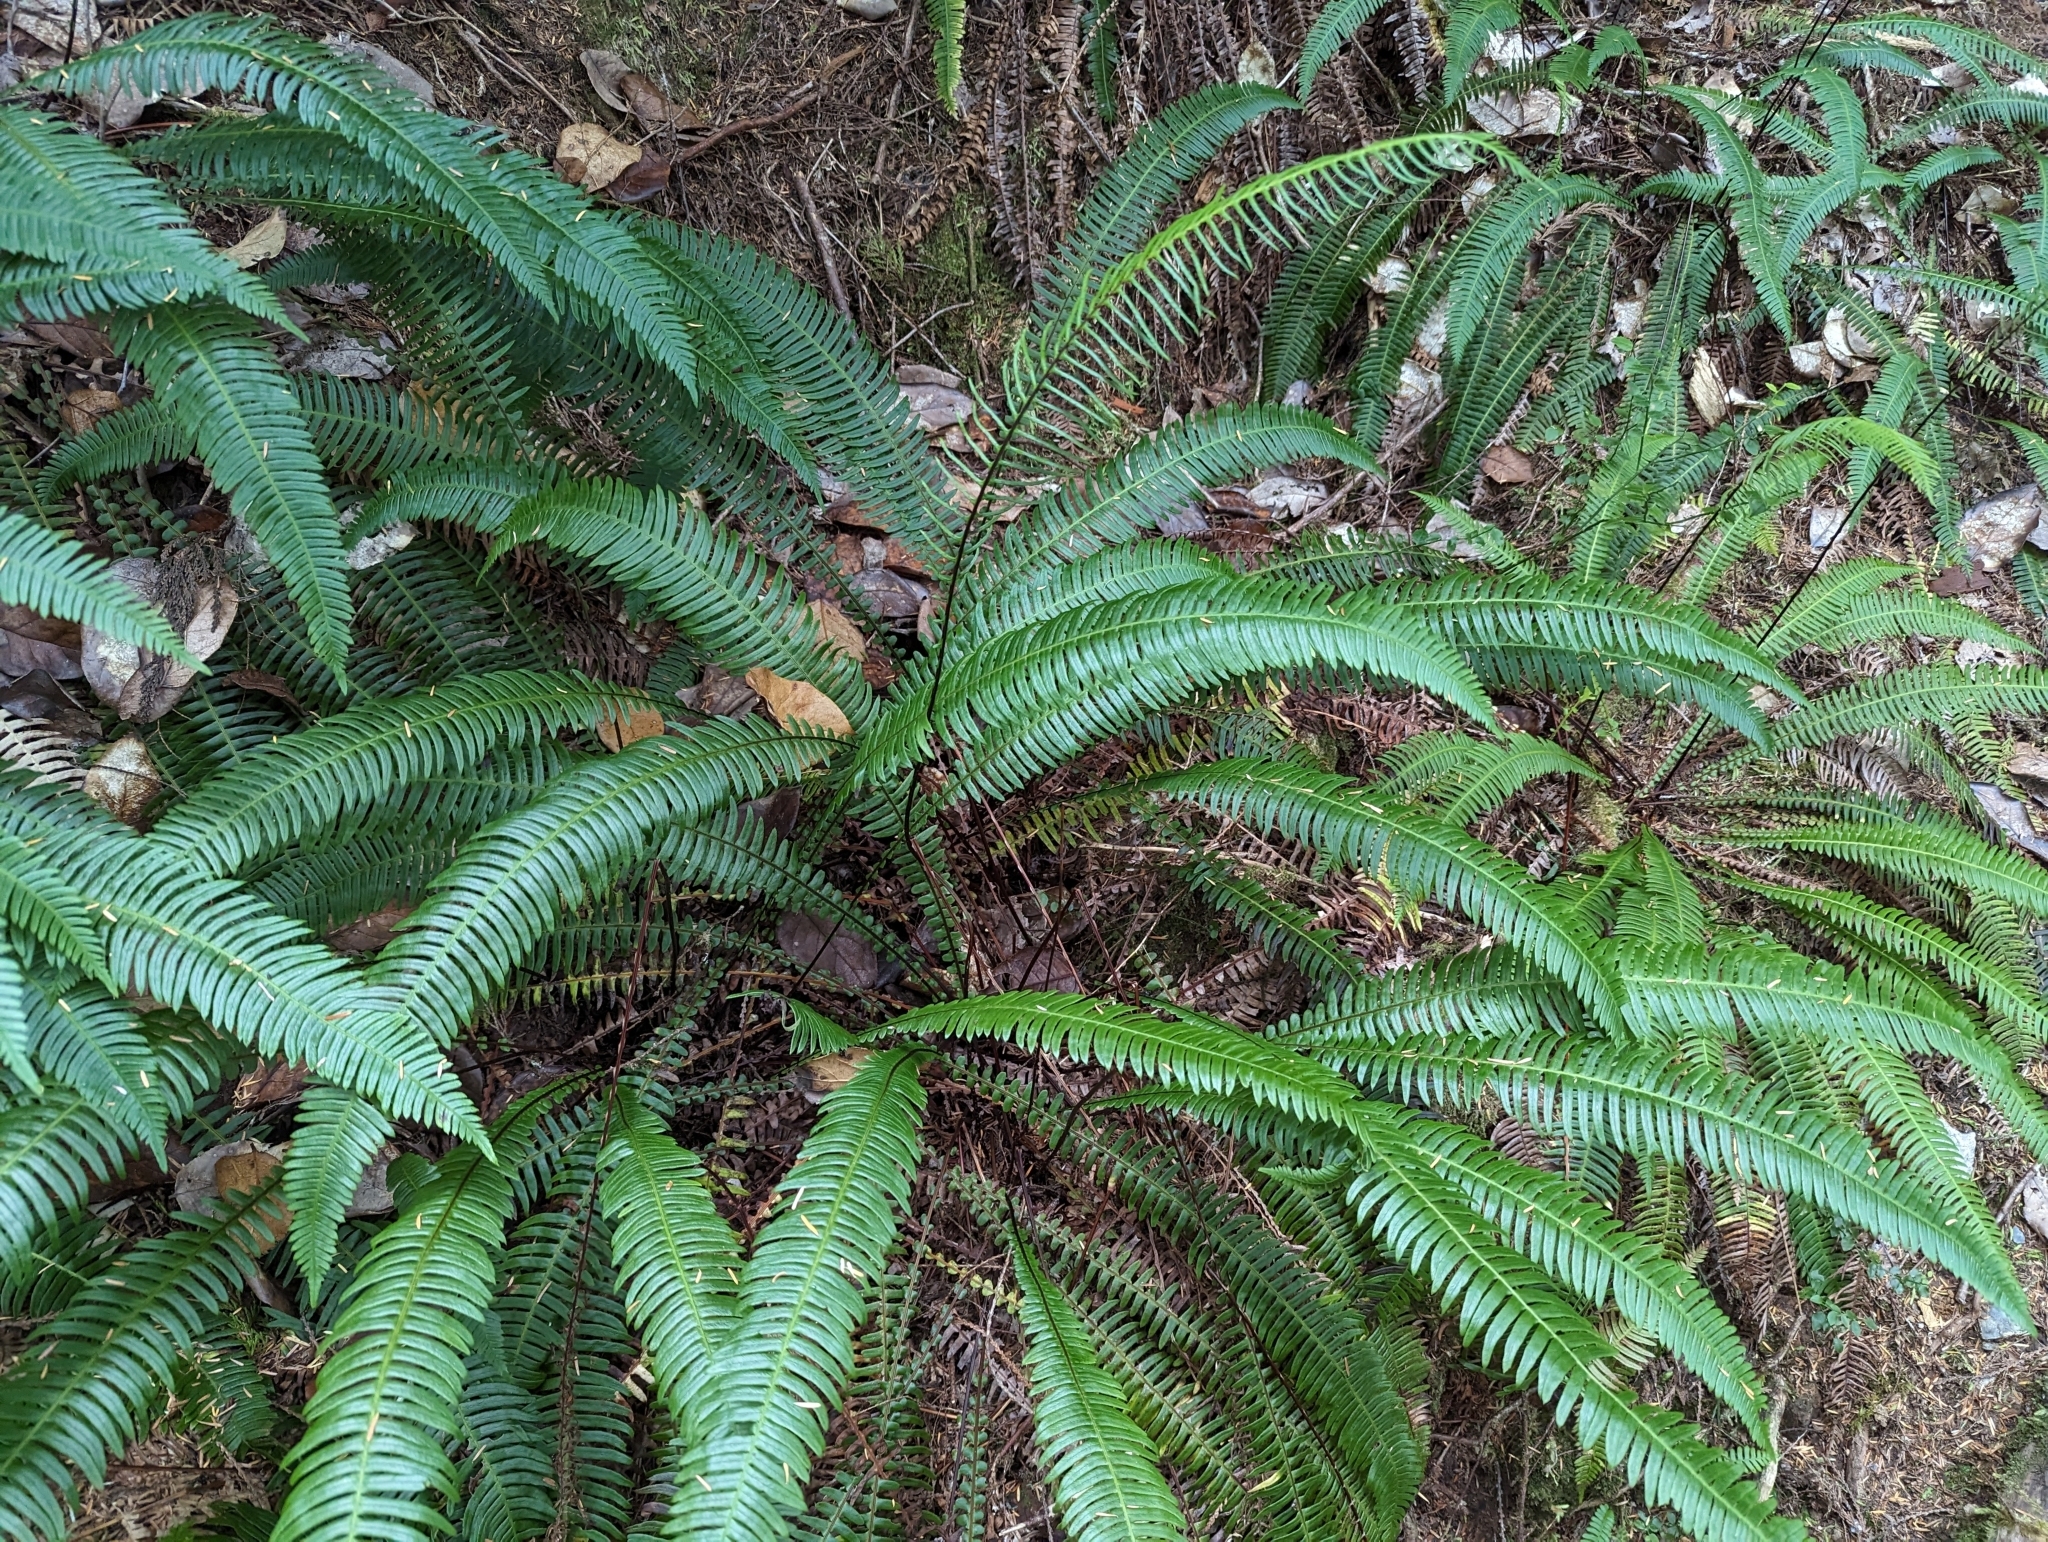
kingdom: Plantae
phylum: Tracheophyta
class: Polypodiopsida
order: Polypodiales
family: Blechnaceae
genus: Struthiopteris
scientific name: Struthiopteris spicant
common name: Deer fern
